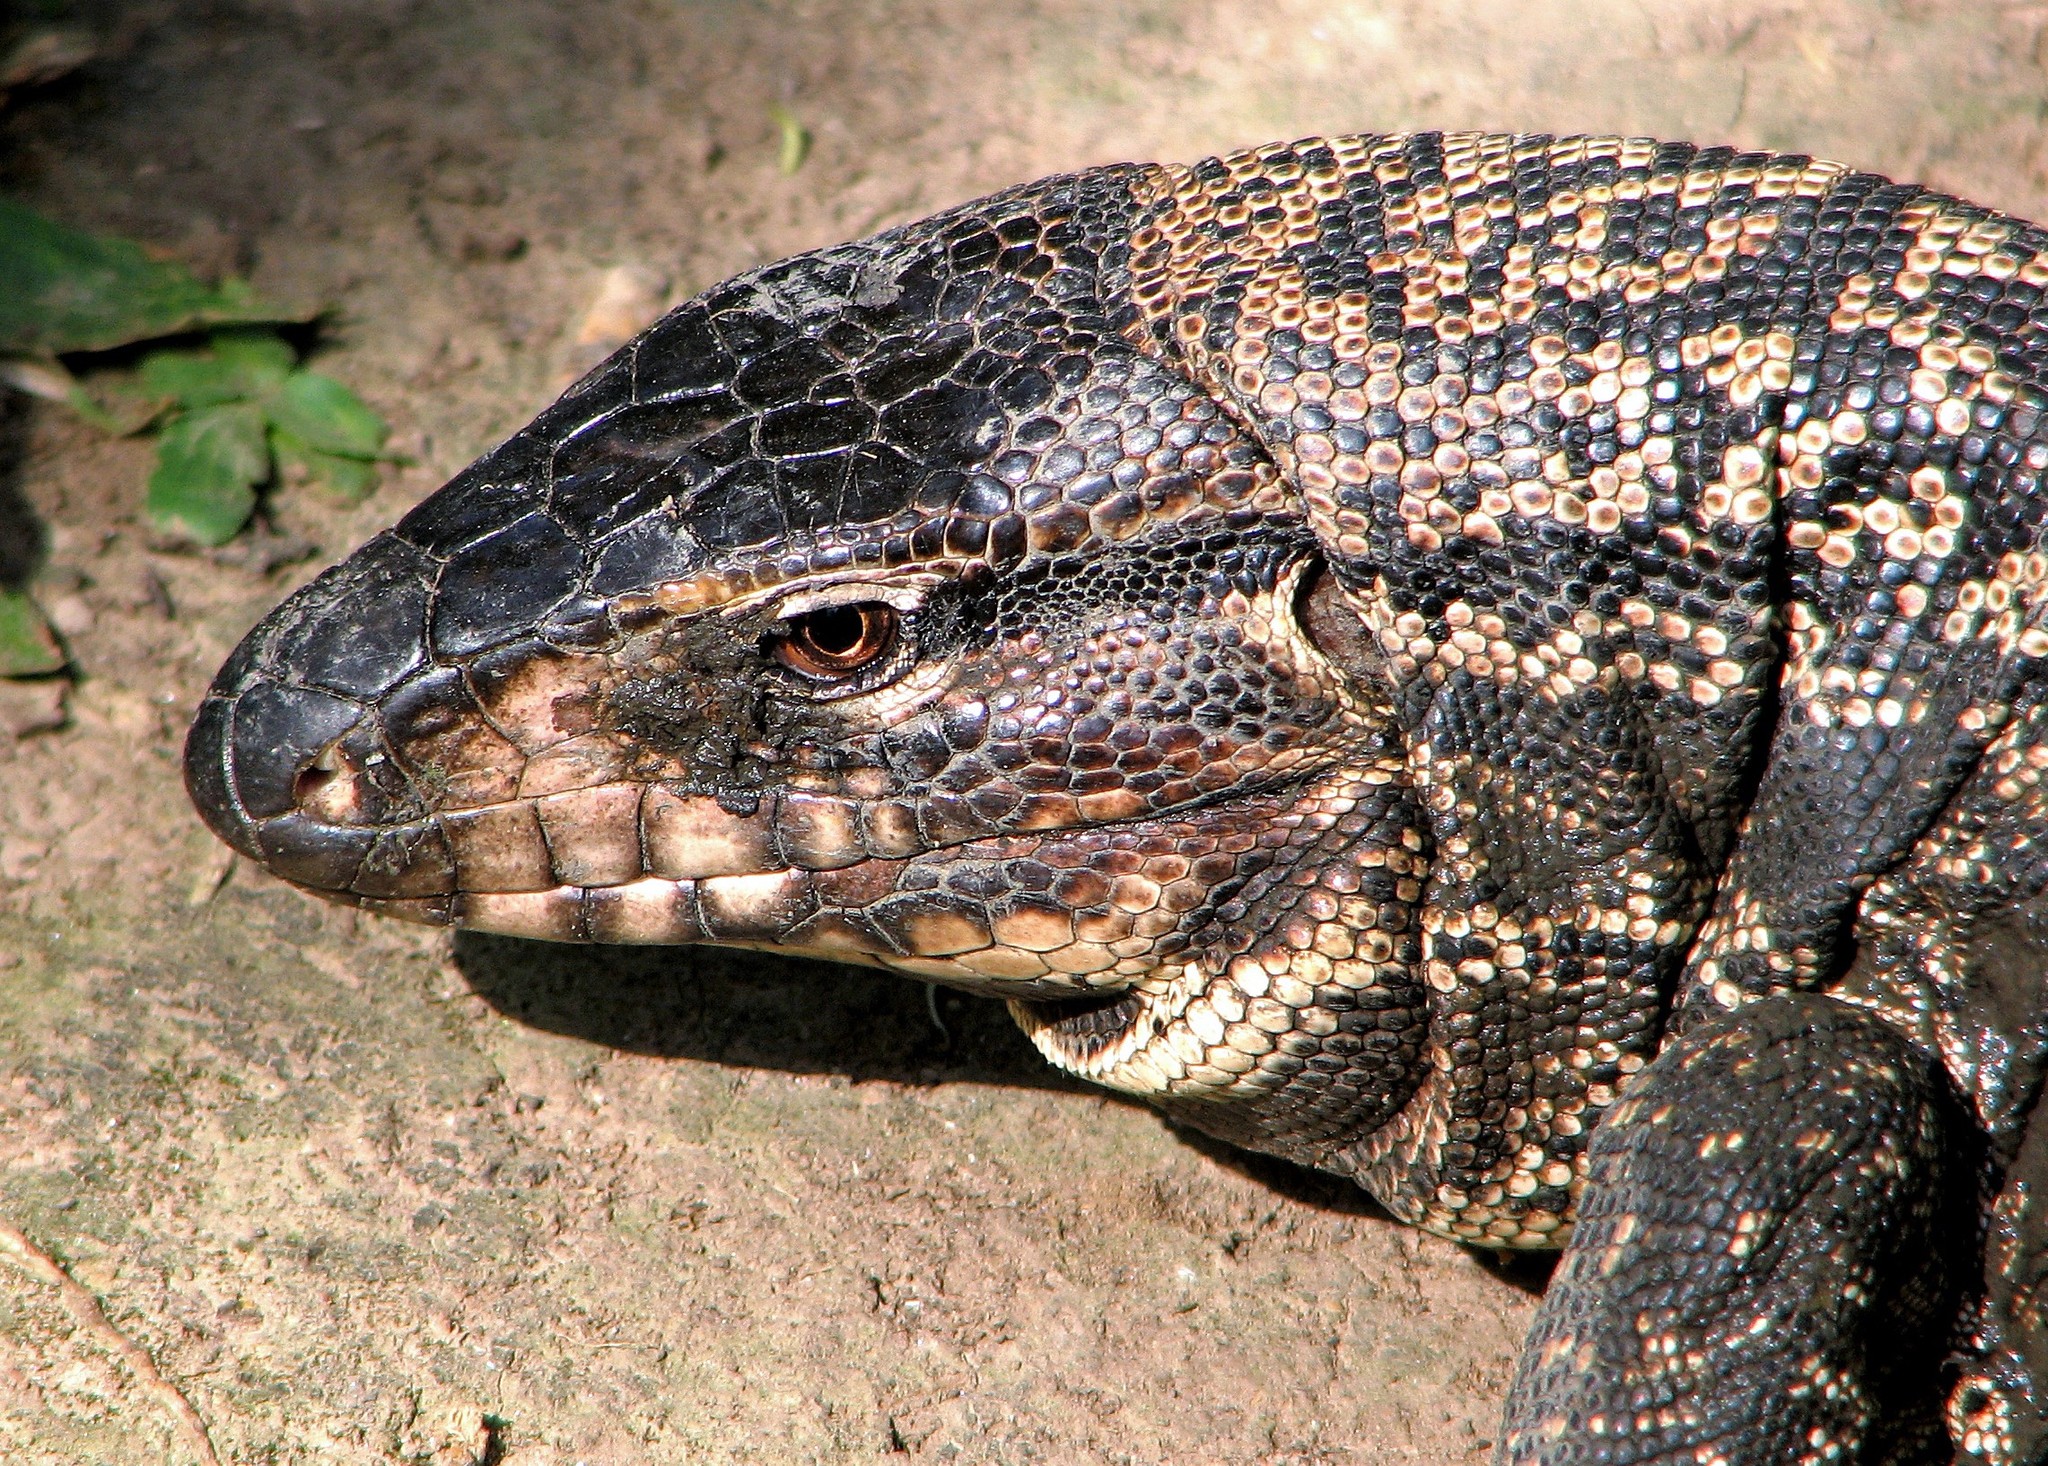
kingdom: Animalia
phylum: Chordata
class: Squamata
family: Teiidae
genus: Salvator
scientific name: Salvator merianae
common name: Argentine black and white tegu
